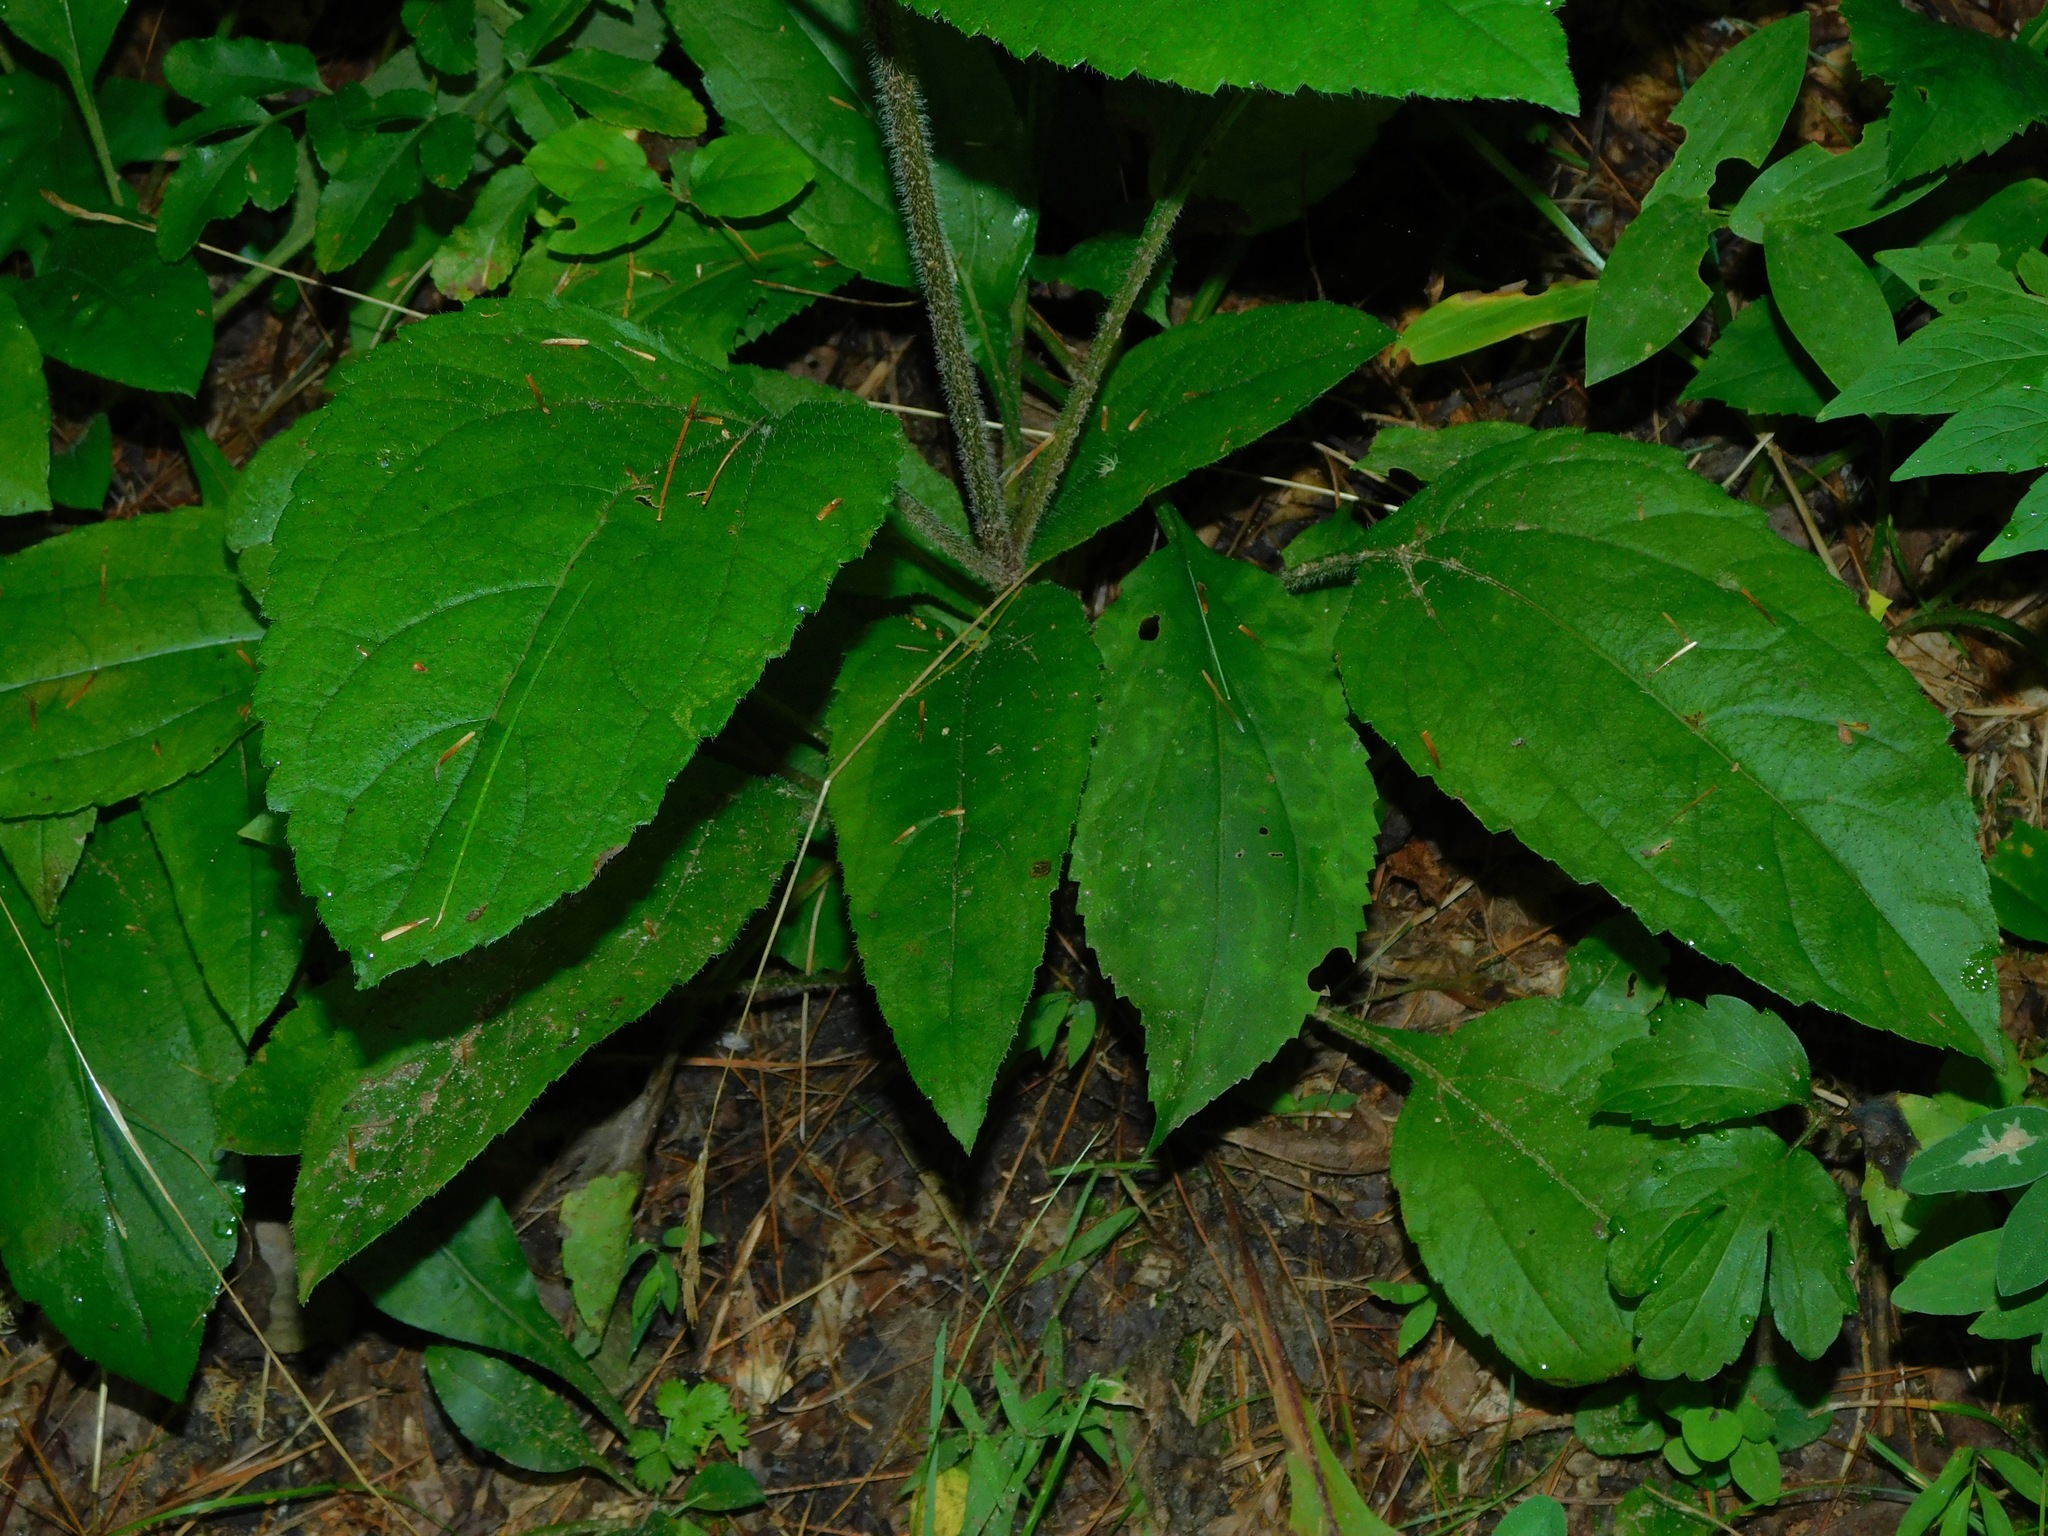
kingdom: Plantae
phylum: Tracheophyta
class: Magnoliopsida
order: Asterales
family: Asteraceae
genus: Helianthus
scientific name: Helianthus atrorubens
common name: Dark-eyed sunflower
